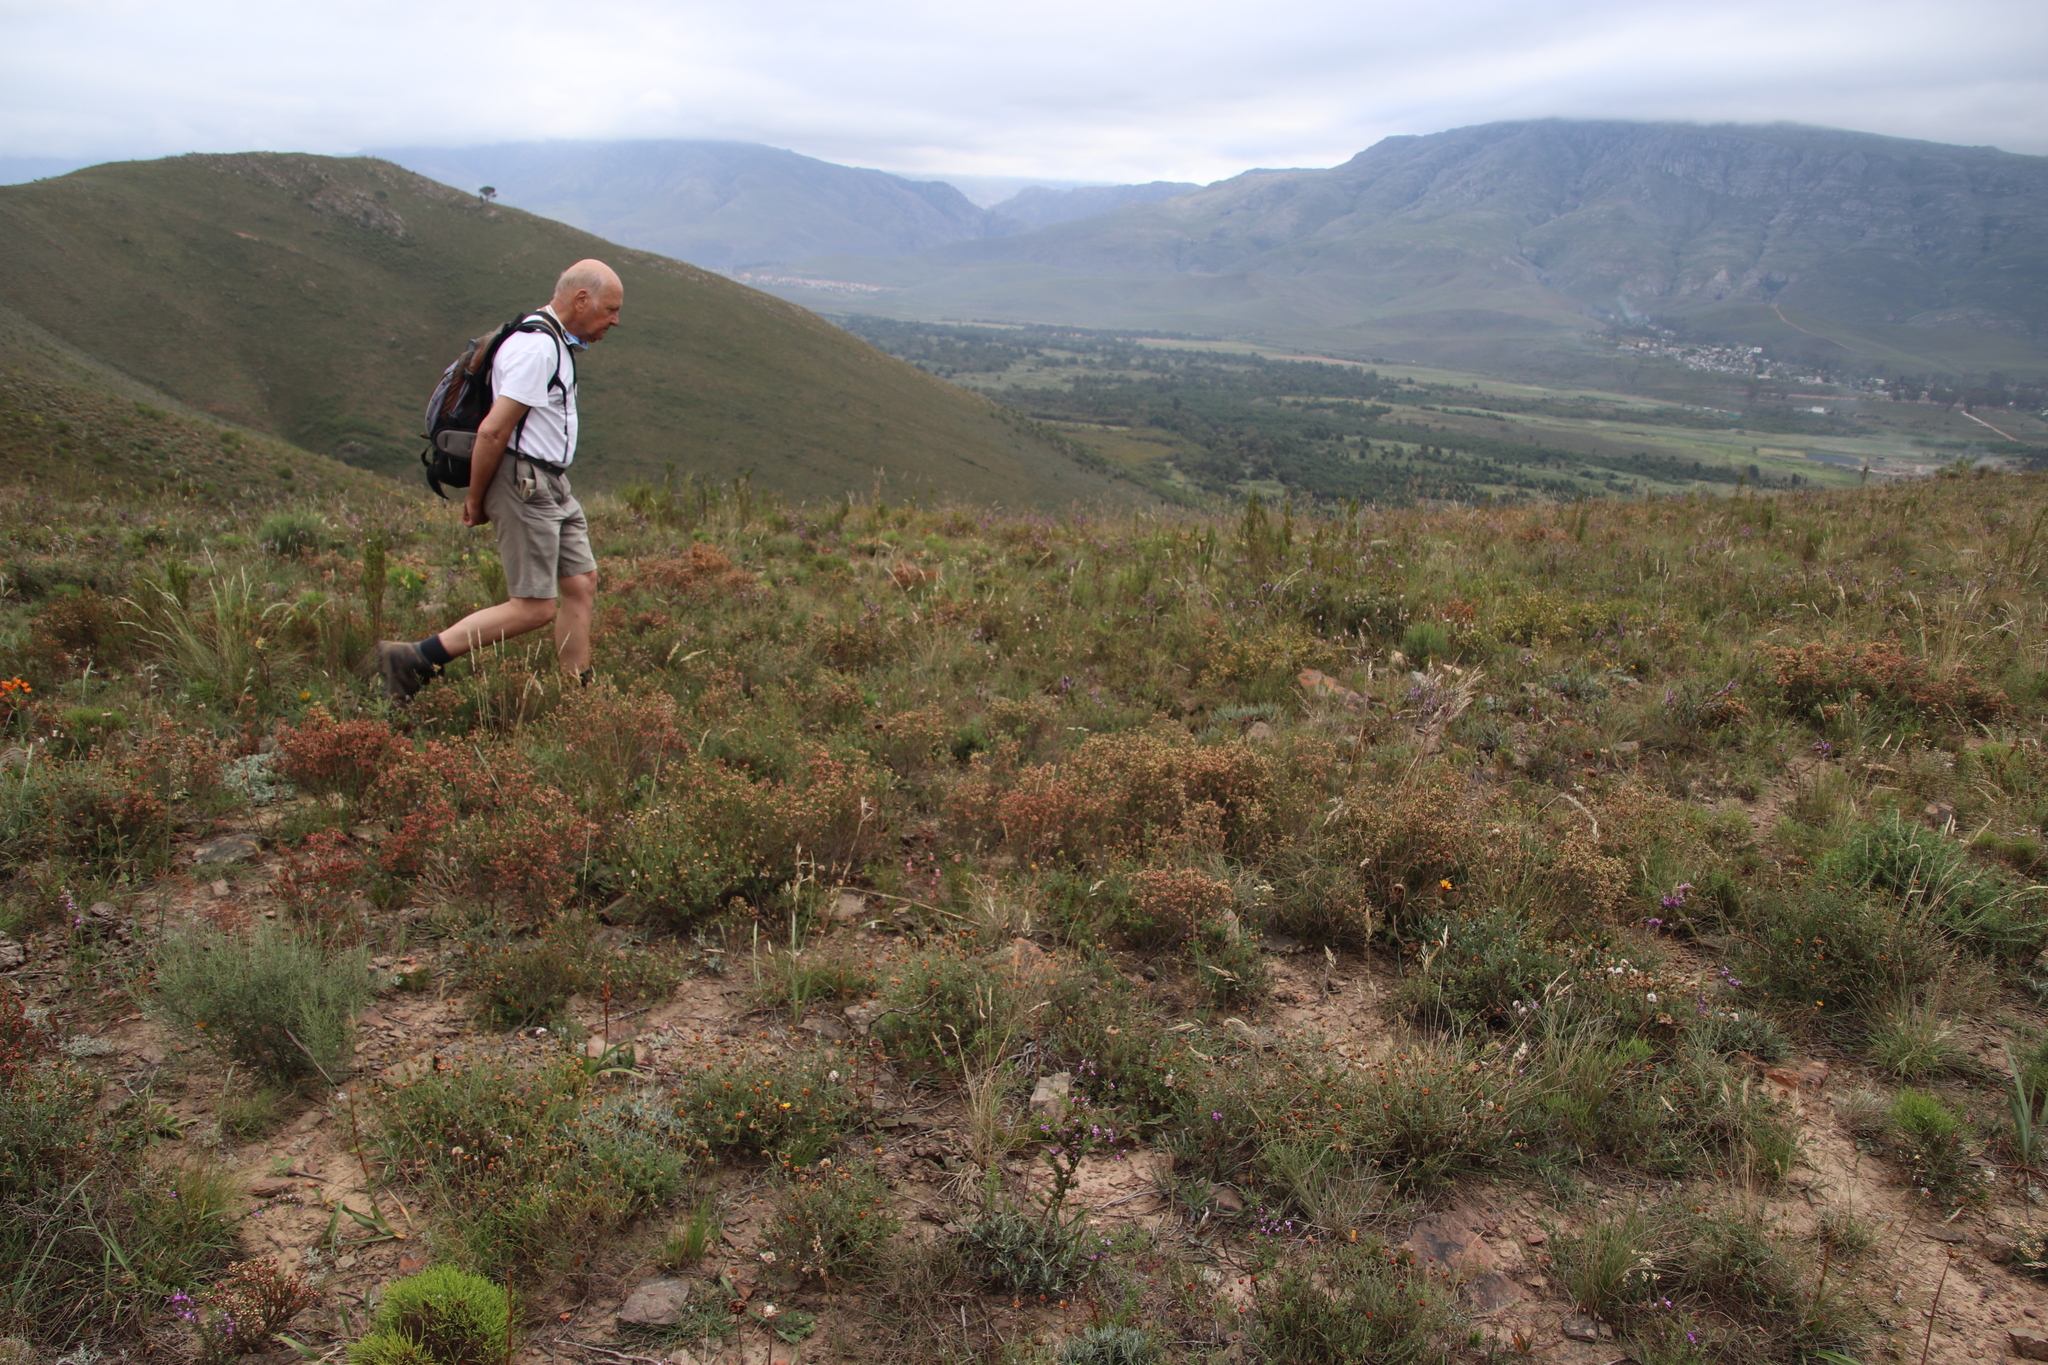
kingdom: Plantae
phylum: Tracheophyta
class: Magnoliopsida
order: Malvales
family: Thymelaeaceae
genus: Passerina
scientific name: Passerina filiformis
